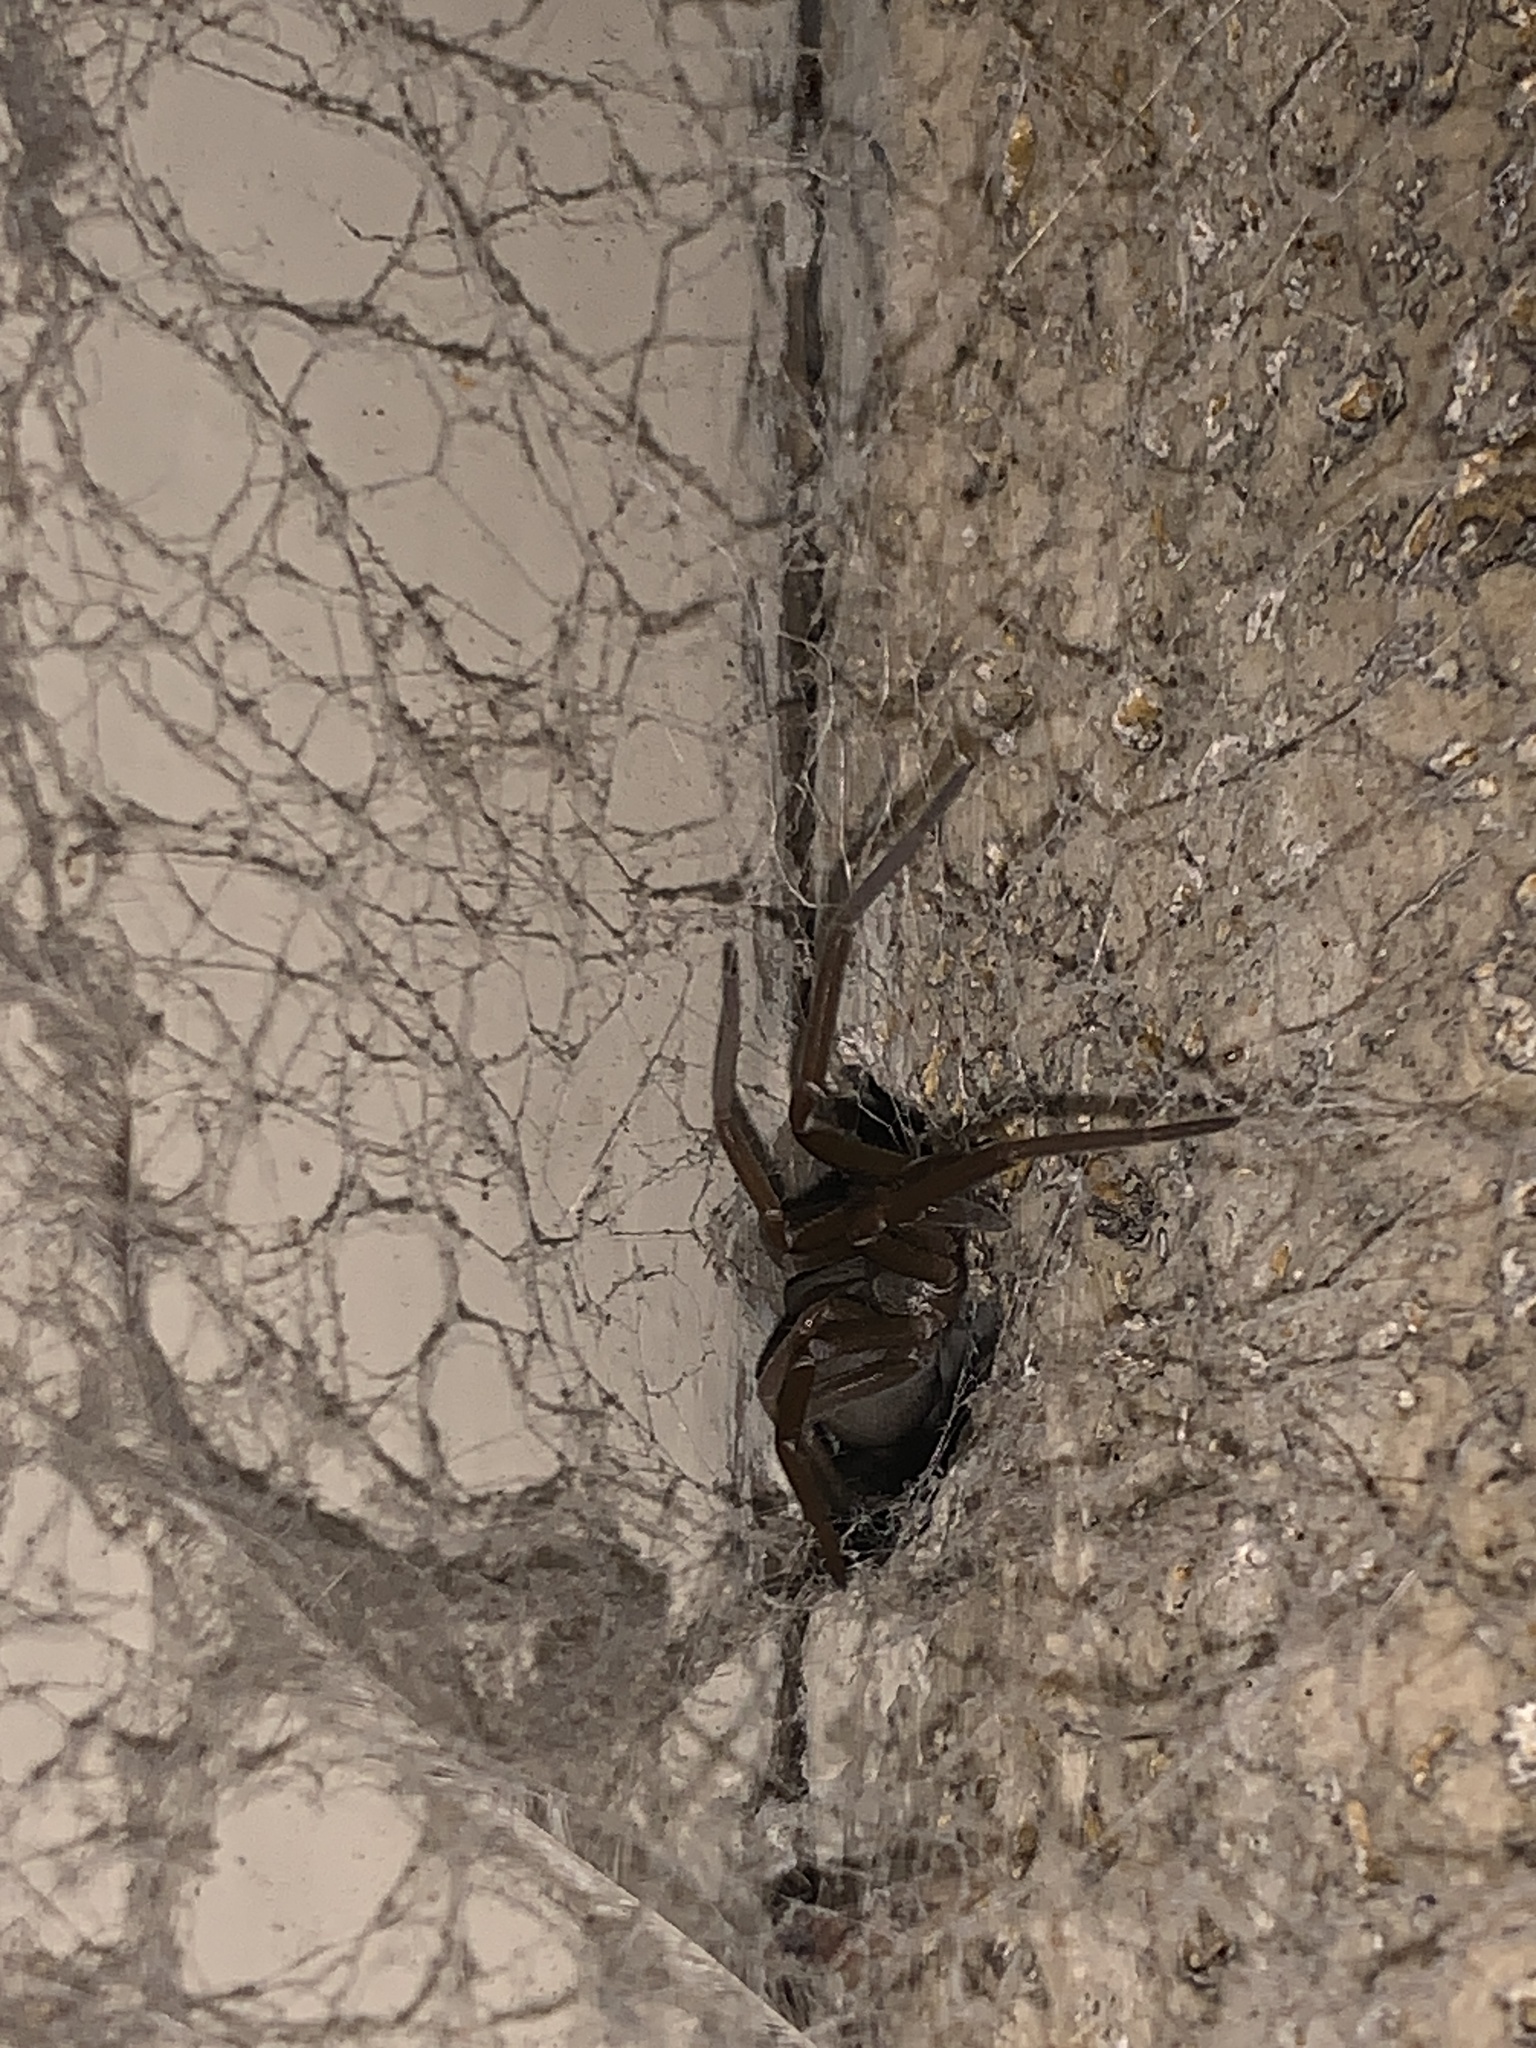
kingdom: Animalia
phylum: Arthropoda
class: Arachnida
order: Araneae
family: Filistatidae
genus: Kukulcania
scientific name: Kukulcania hibernalis
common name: Crevice weaver
